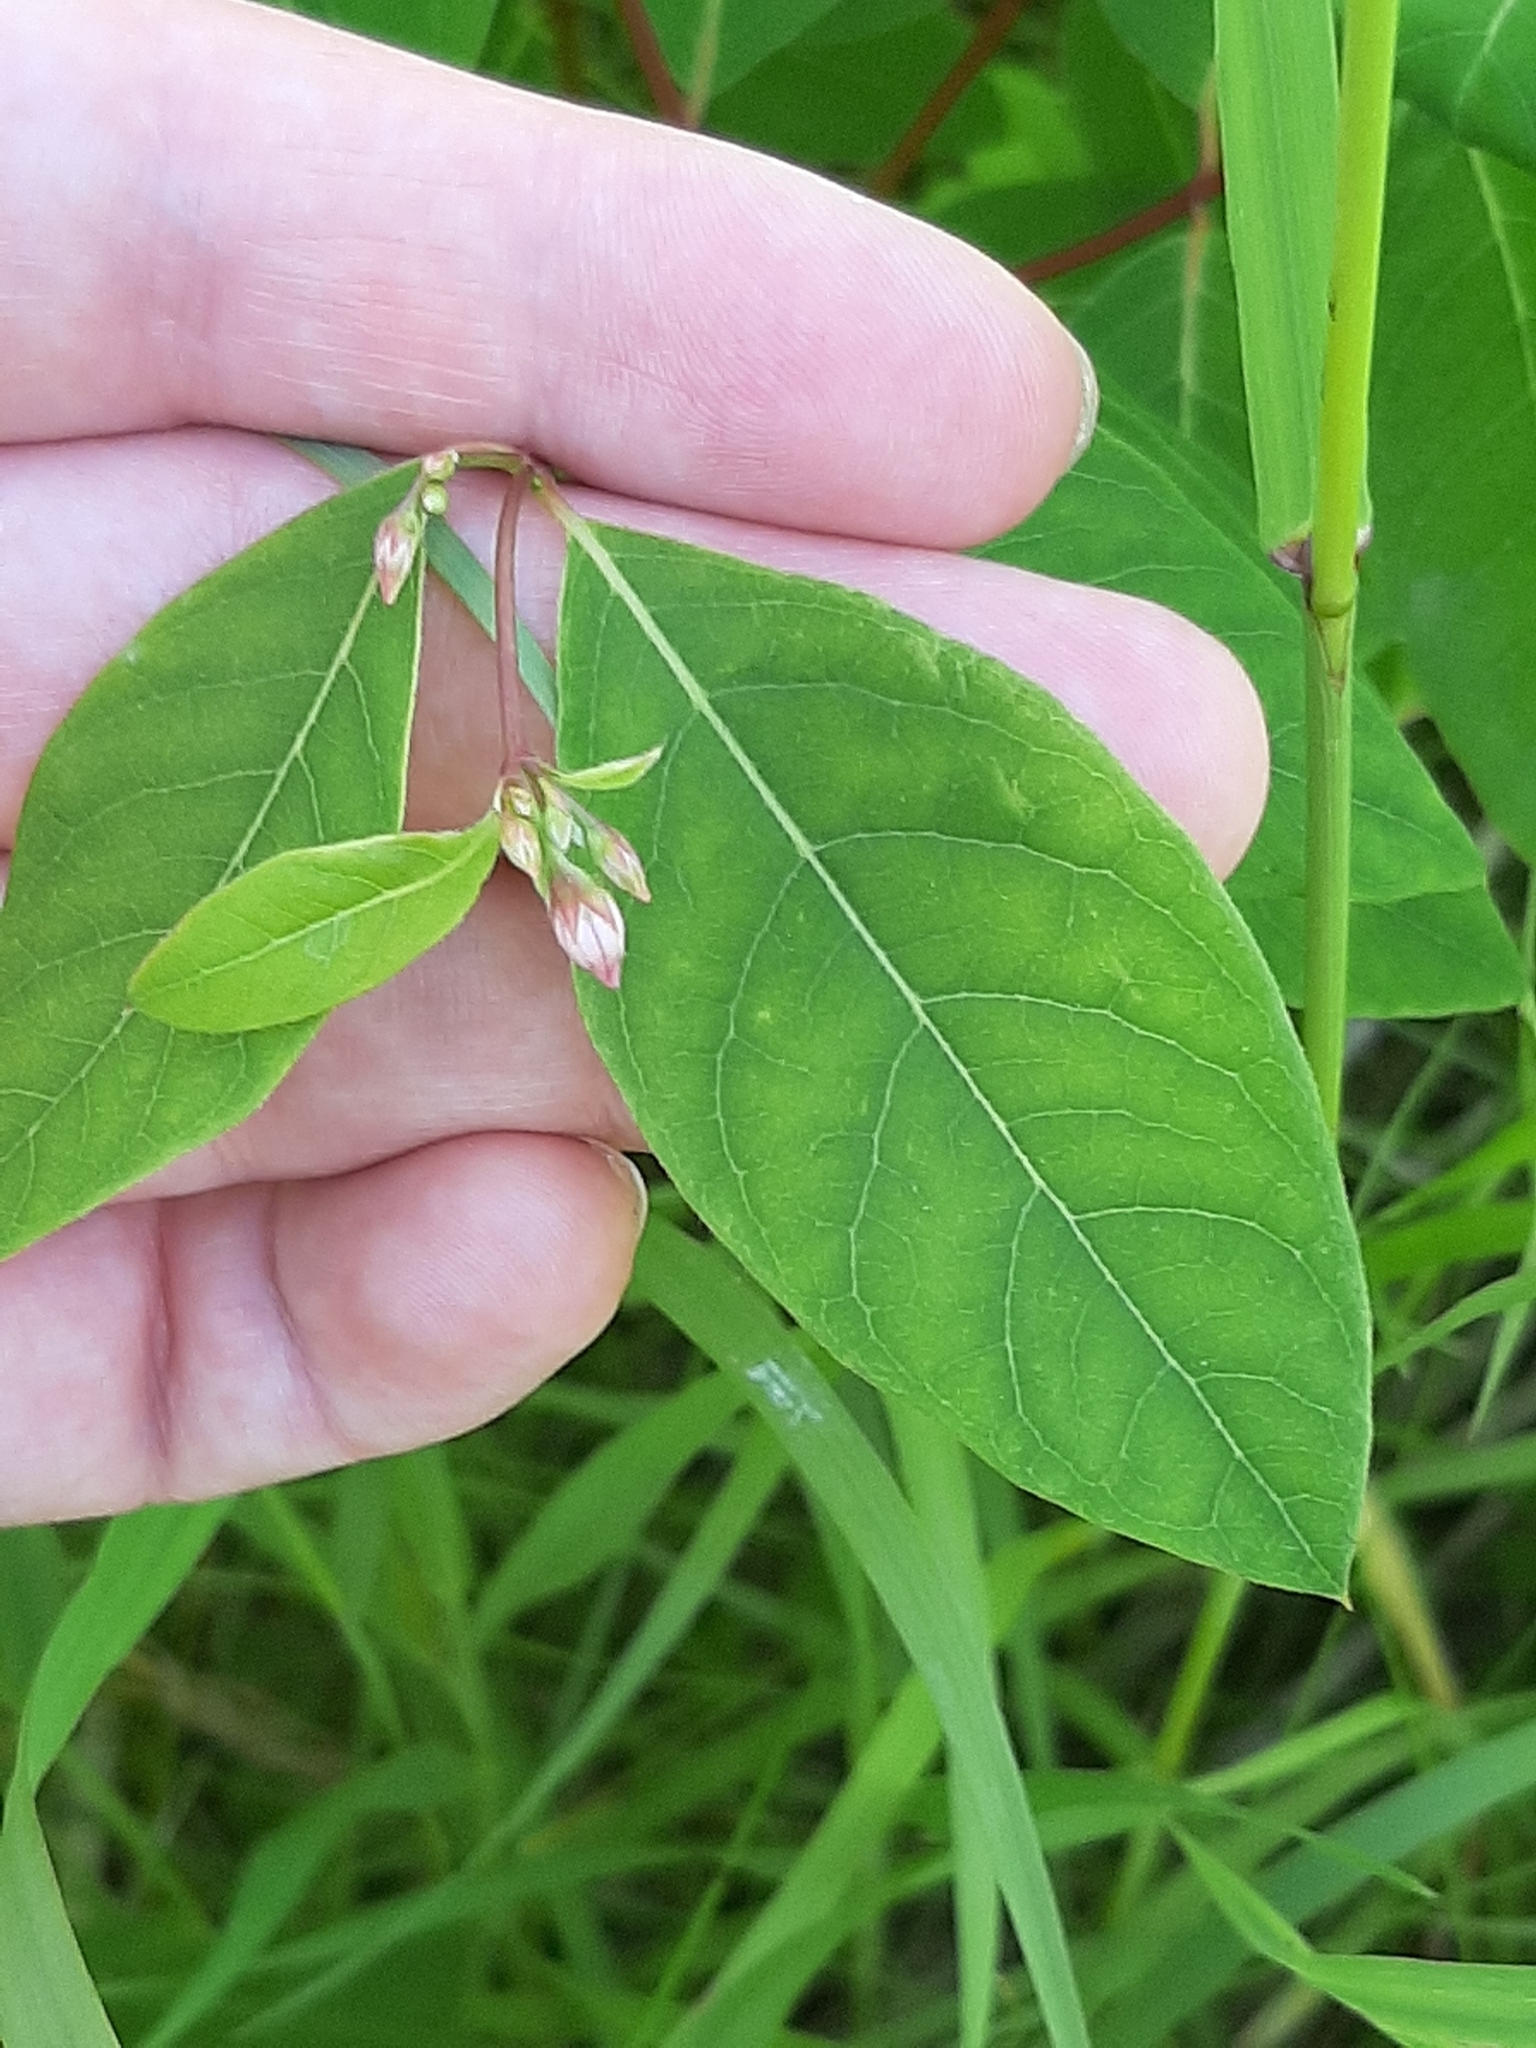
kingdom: Plantae
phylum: Tracheophyta
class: Magnoliopsida
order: Gentianales
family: Apocynaceae
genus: Apocynum
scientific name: Apocynum androsaemifolium
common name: Spreading dogbane
